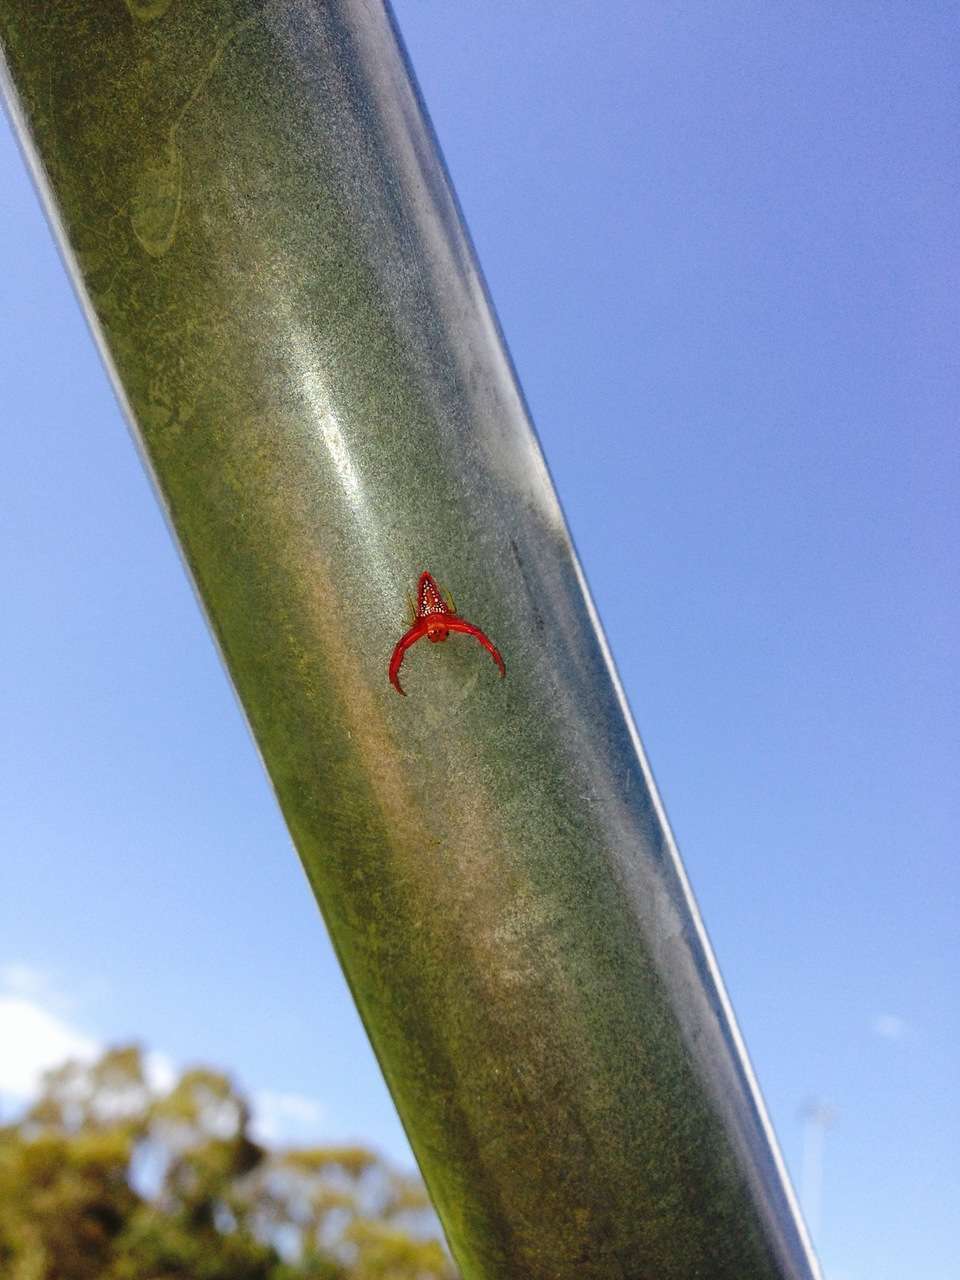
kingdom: Animalia
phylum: Arthropoda
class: Arachnida
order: Araneae
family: Arkyidae
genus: Arkys
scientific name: Arkys walckenaeri
